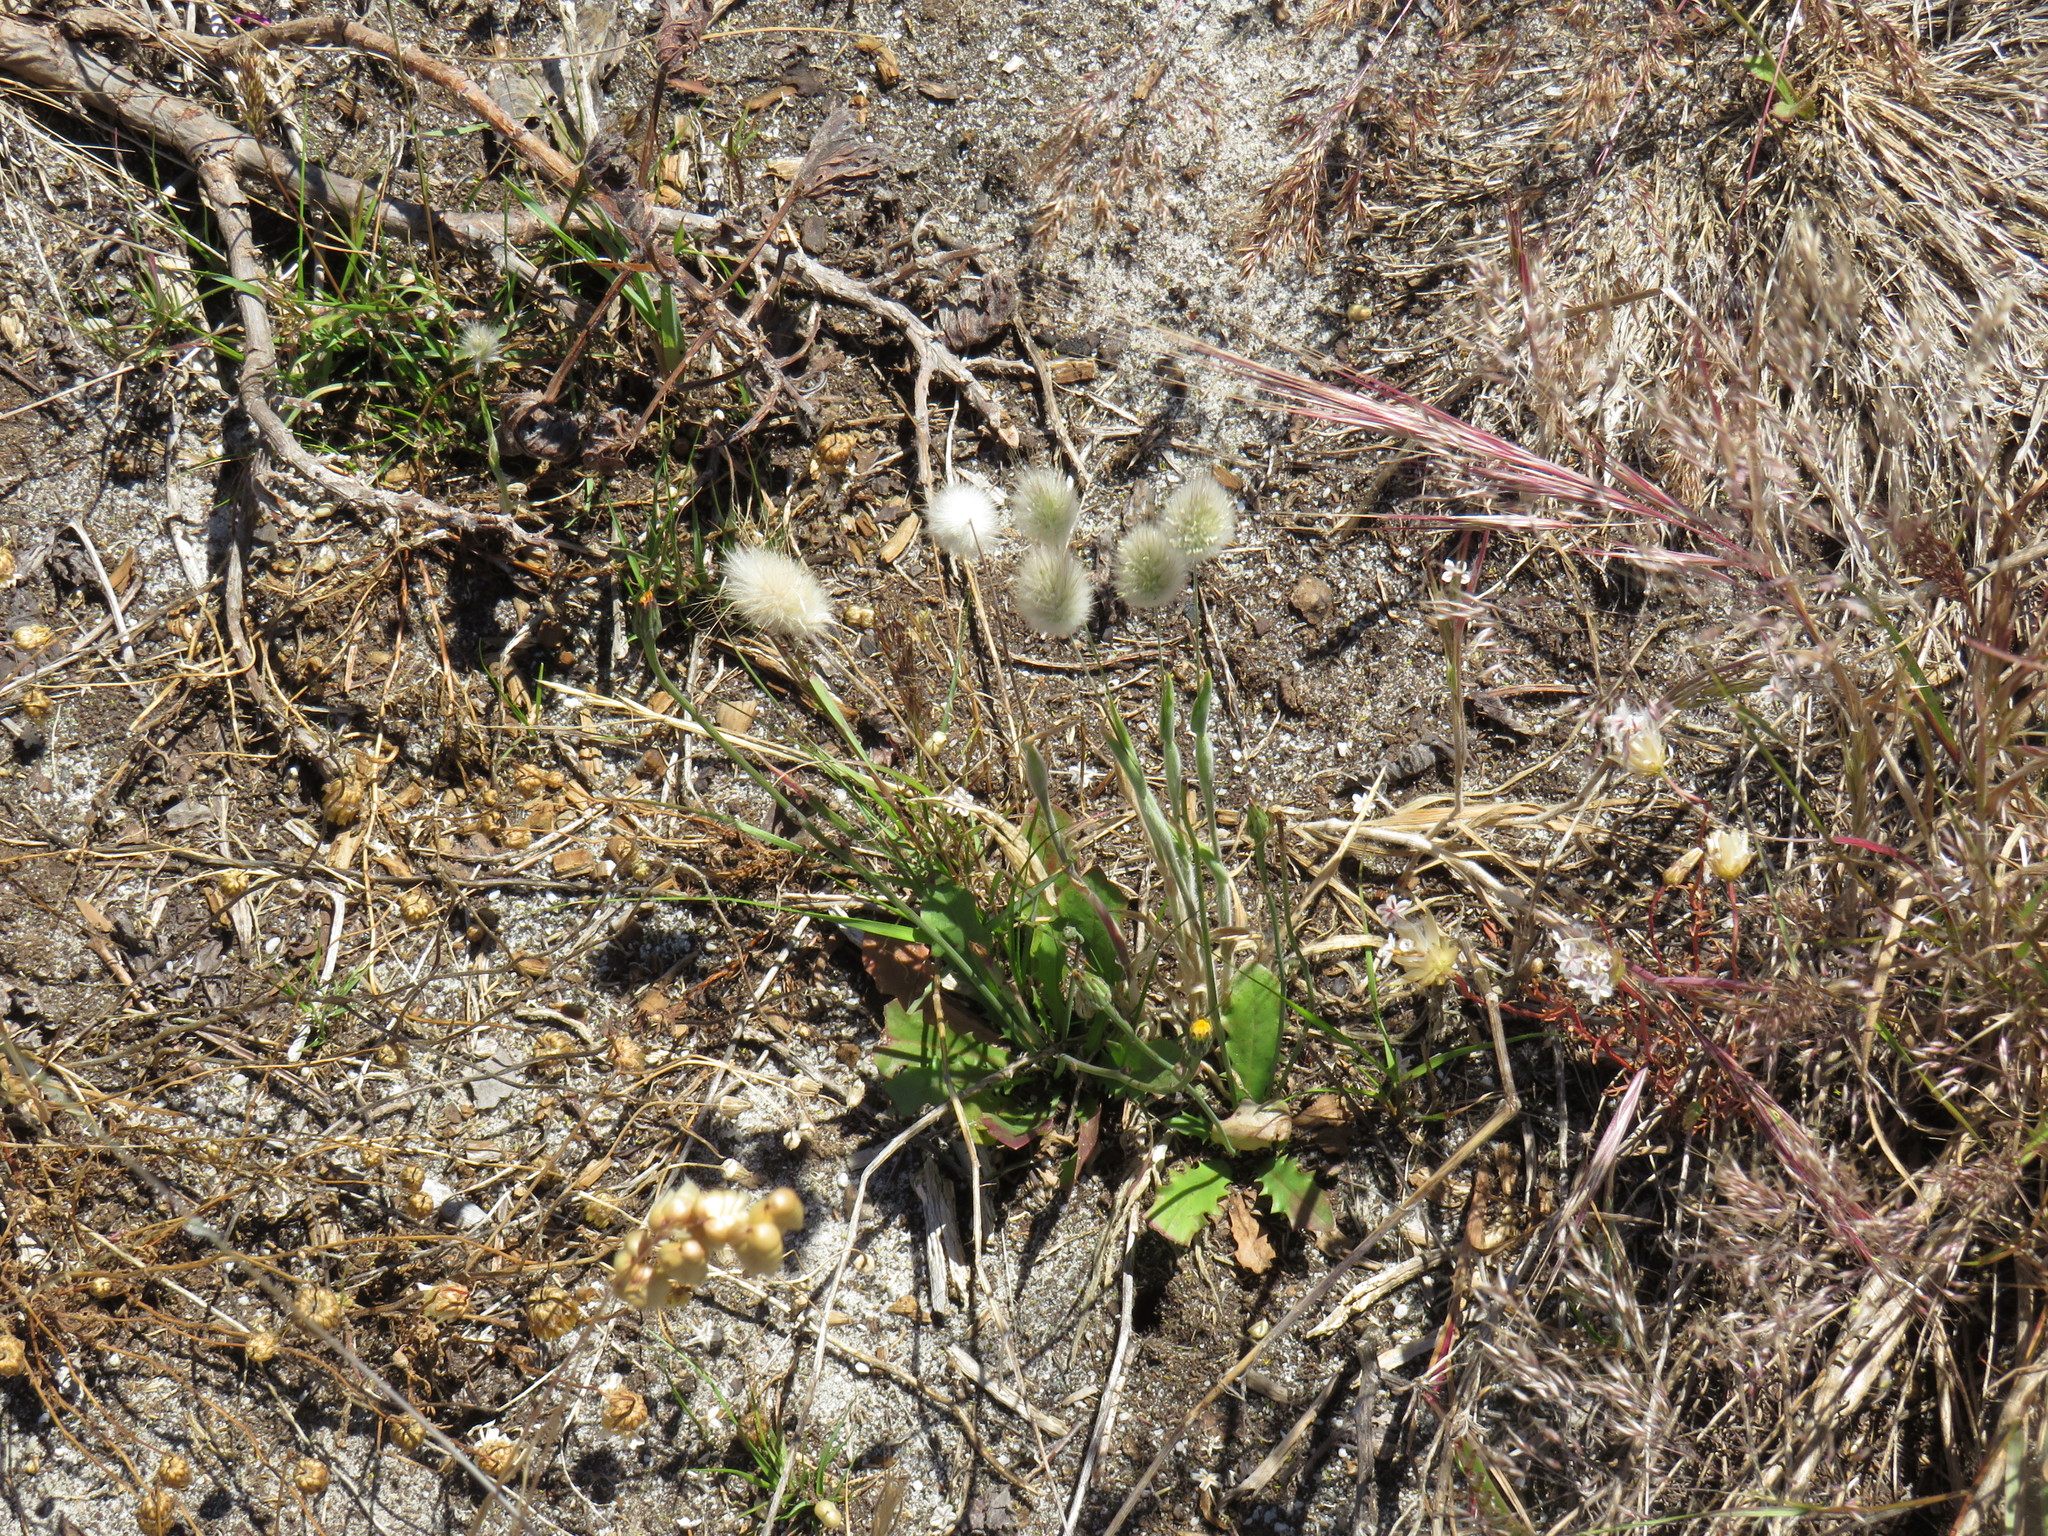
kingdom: Plantae
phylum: Tracheophyta
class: Liliopsida
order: Poales
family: Poaceae
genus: Lagurus
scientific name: Lagurus ovatus
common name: Hare's-tail
